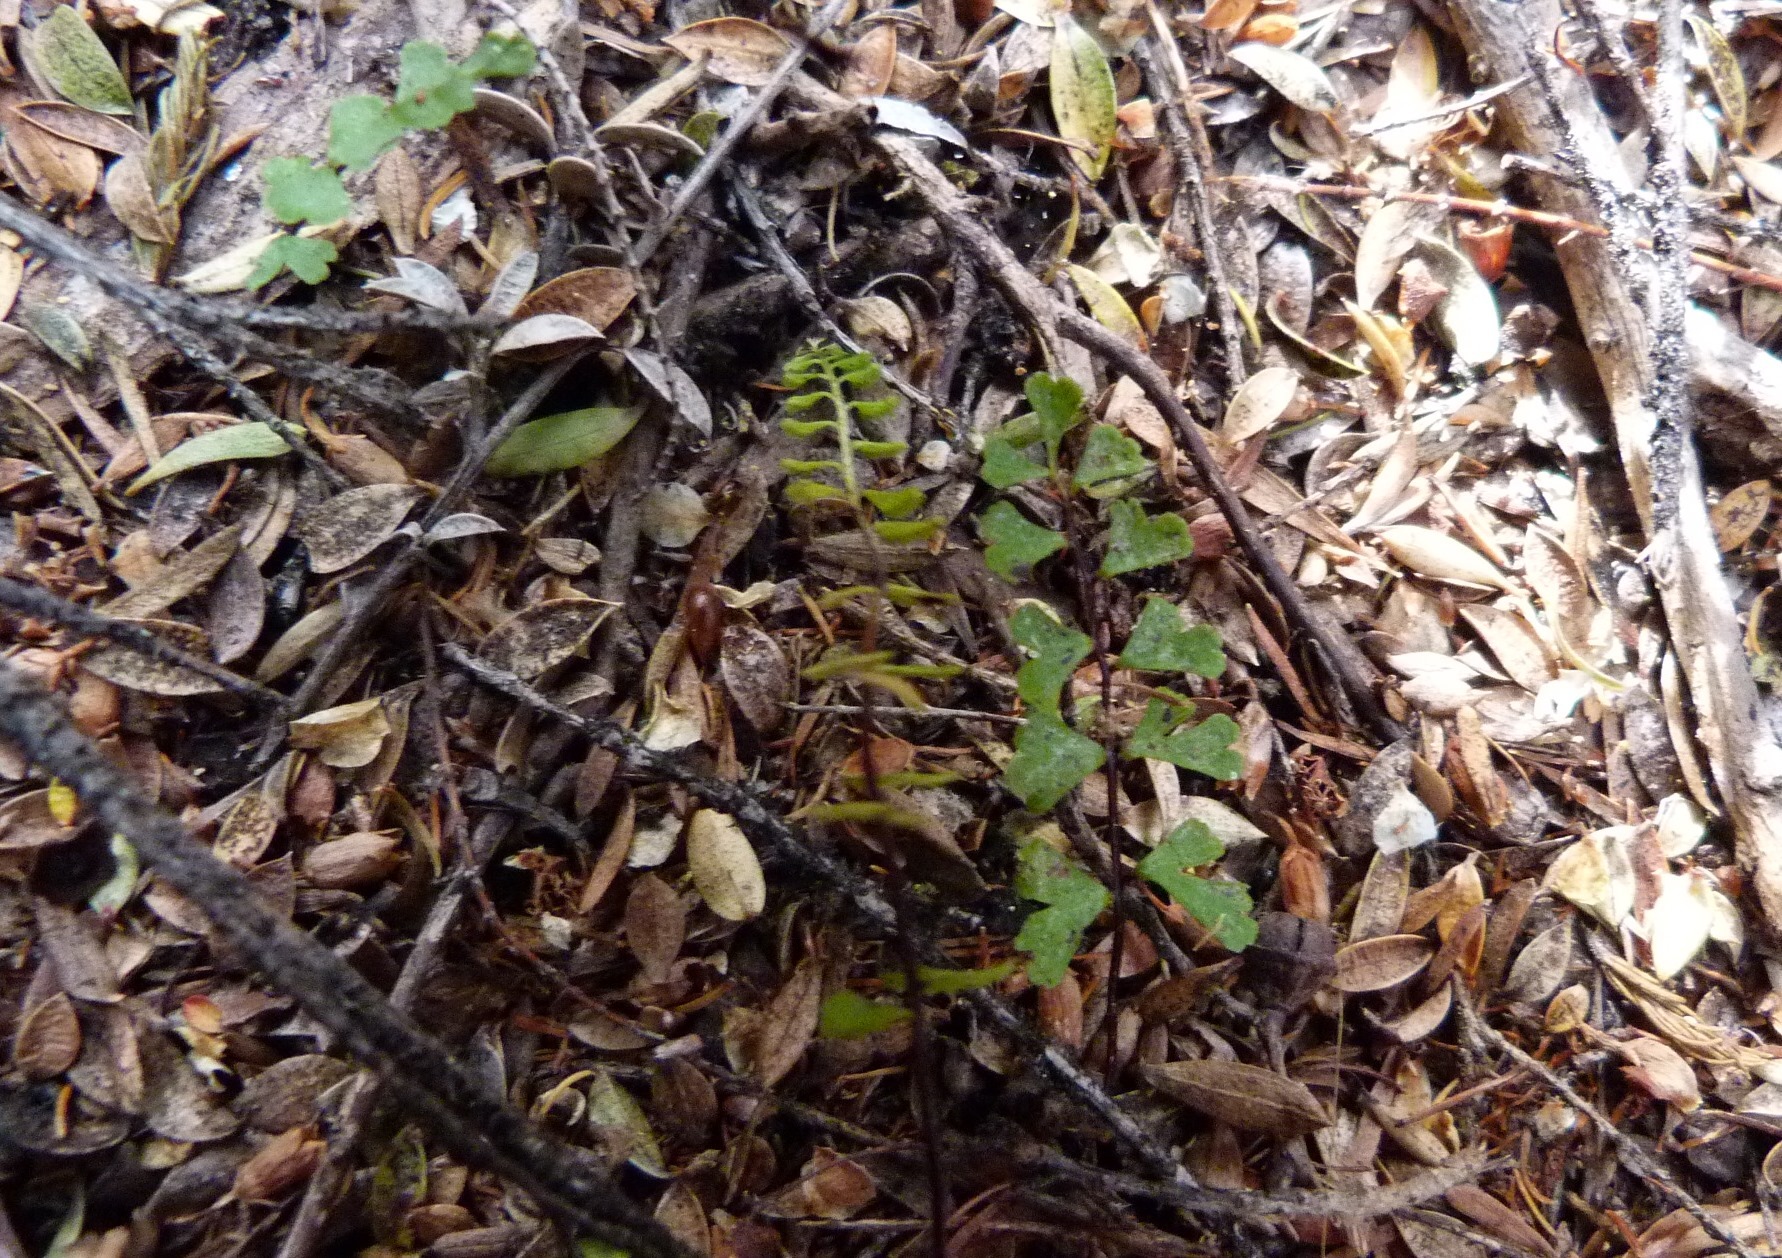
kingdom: Plantae
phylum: Tracheophyta
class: Polypodiopsida
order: Polypodiales
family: Lindsaeaceae
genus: Lindsaea
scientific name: Lindsaea linearis
